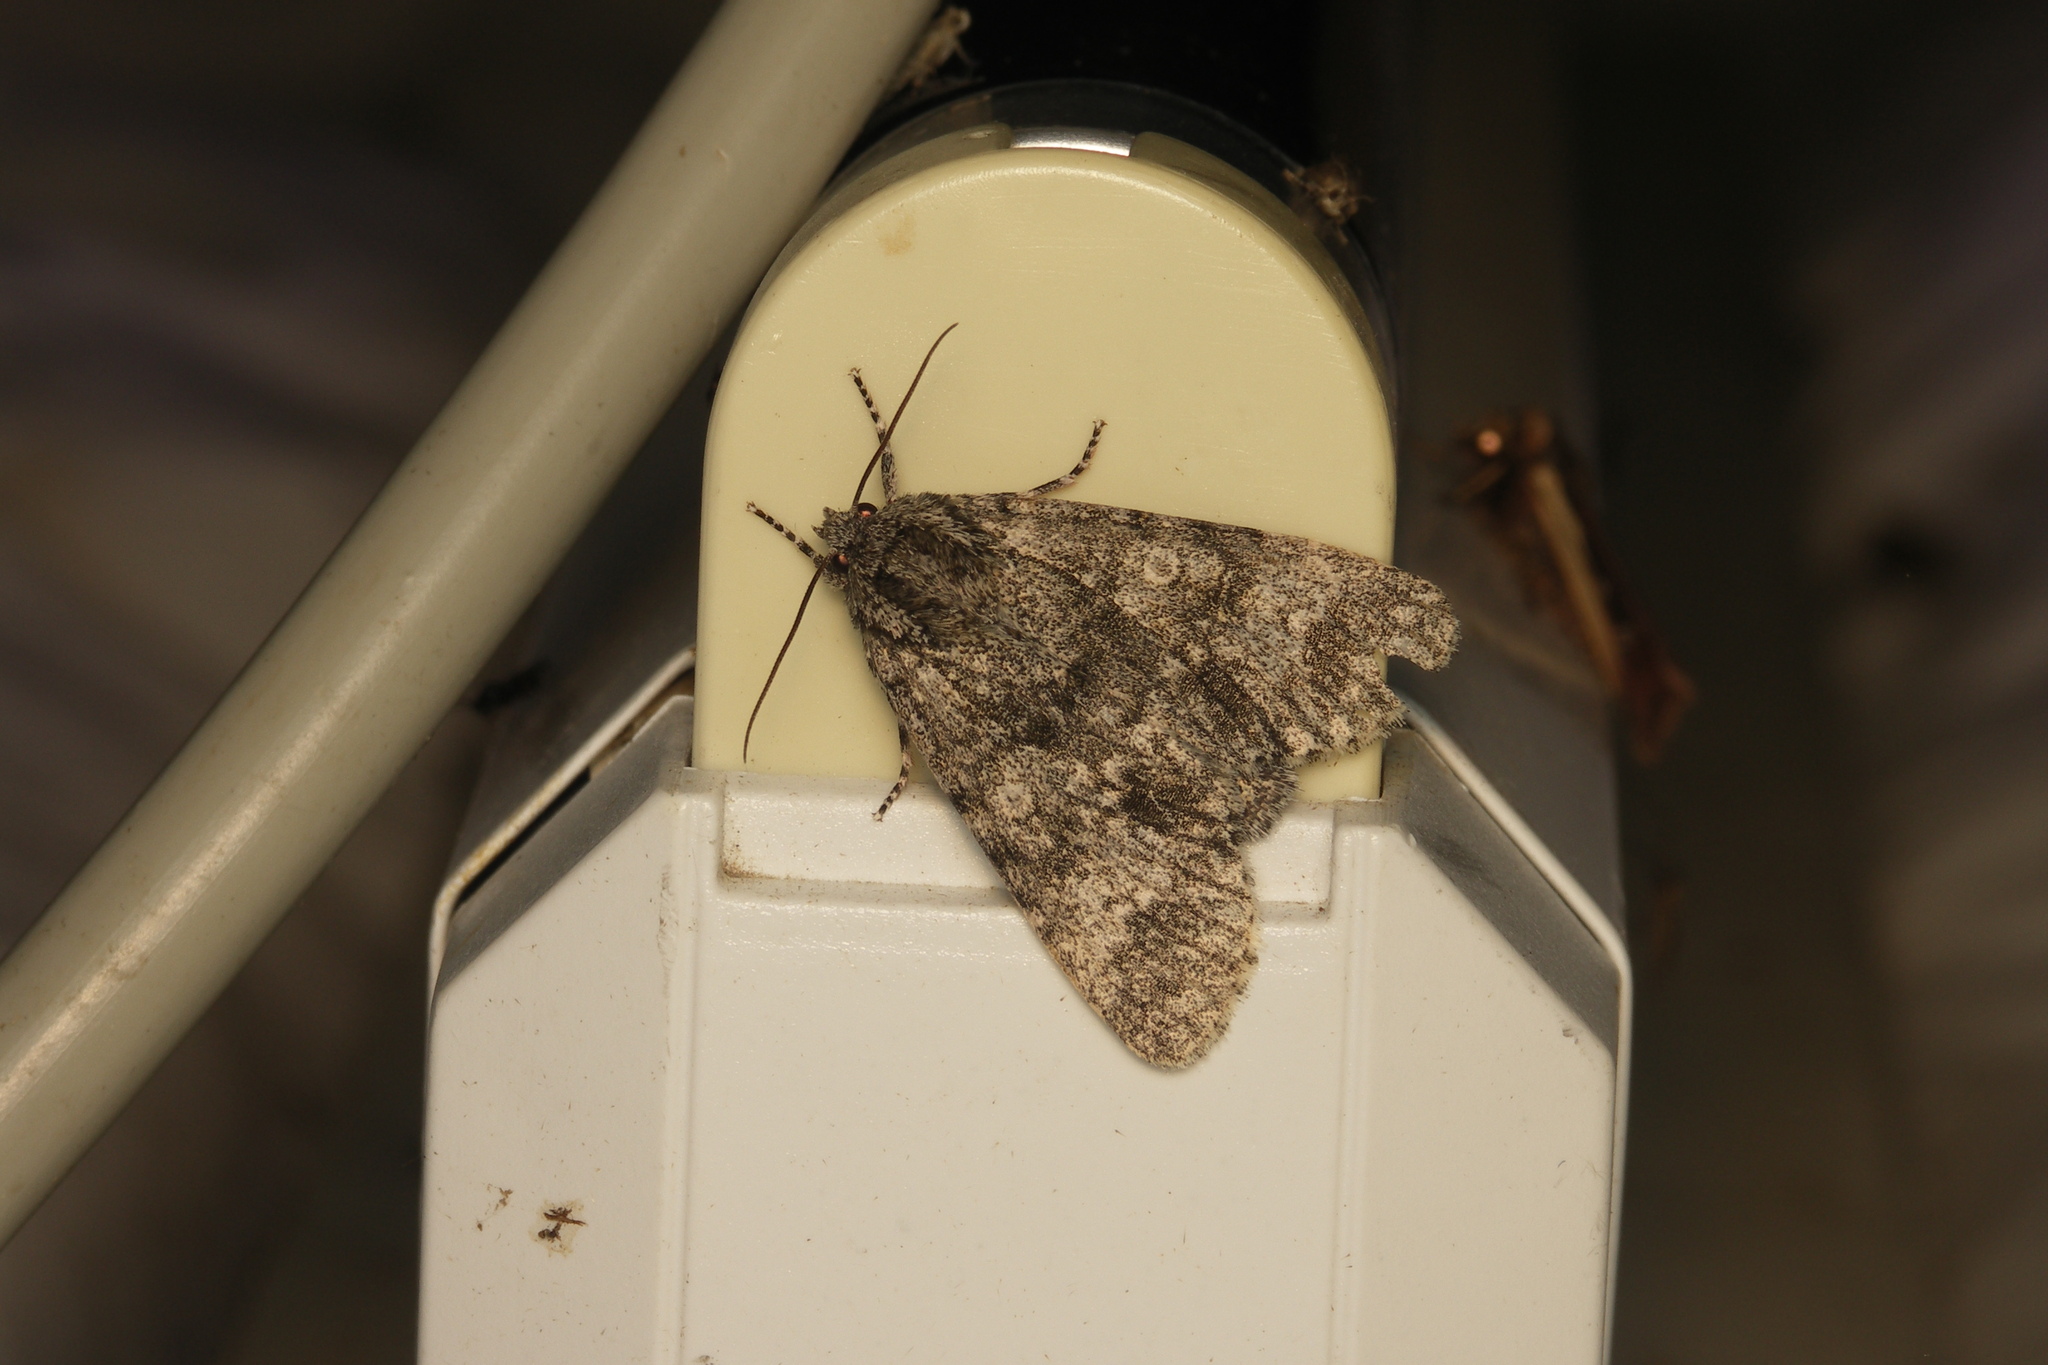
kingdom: Animalia
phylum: Arthropoda
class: Insecta
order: Lepidoptera
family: Noctuidae
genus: Acronicta
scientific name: Acronicta megacephala
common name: Poplar grey
